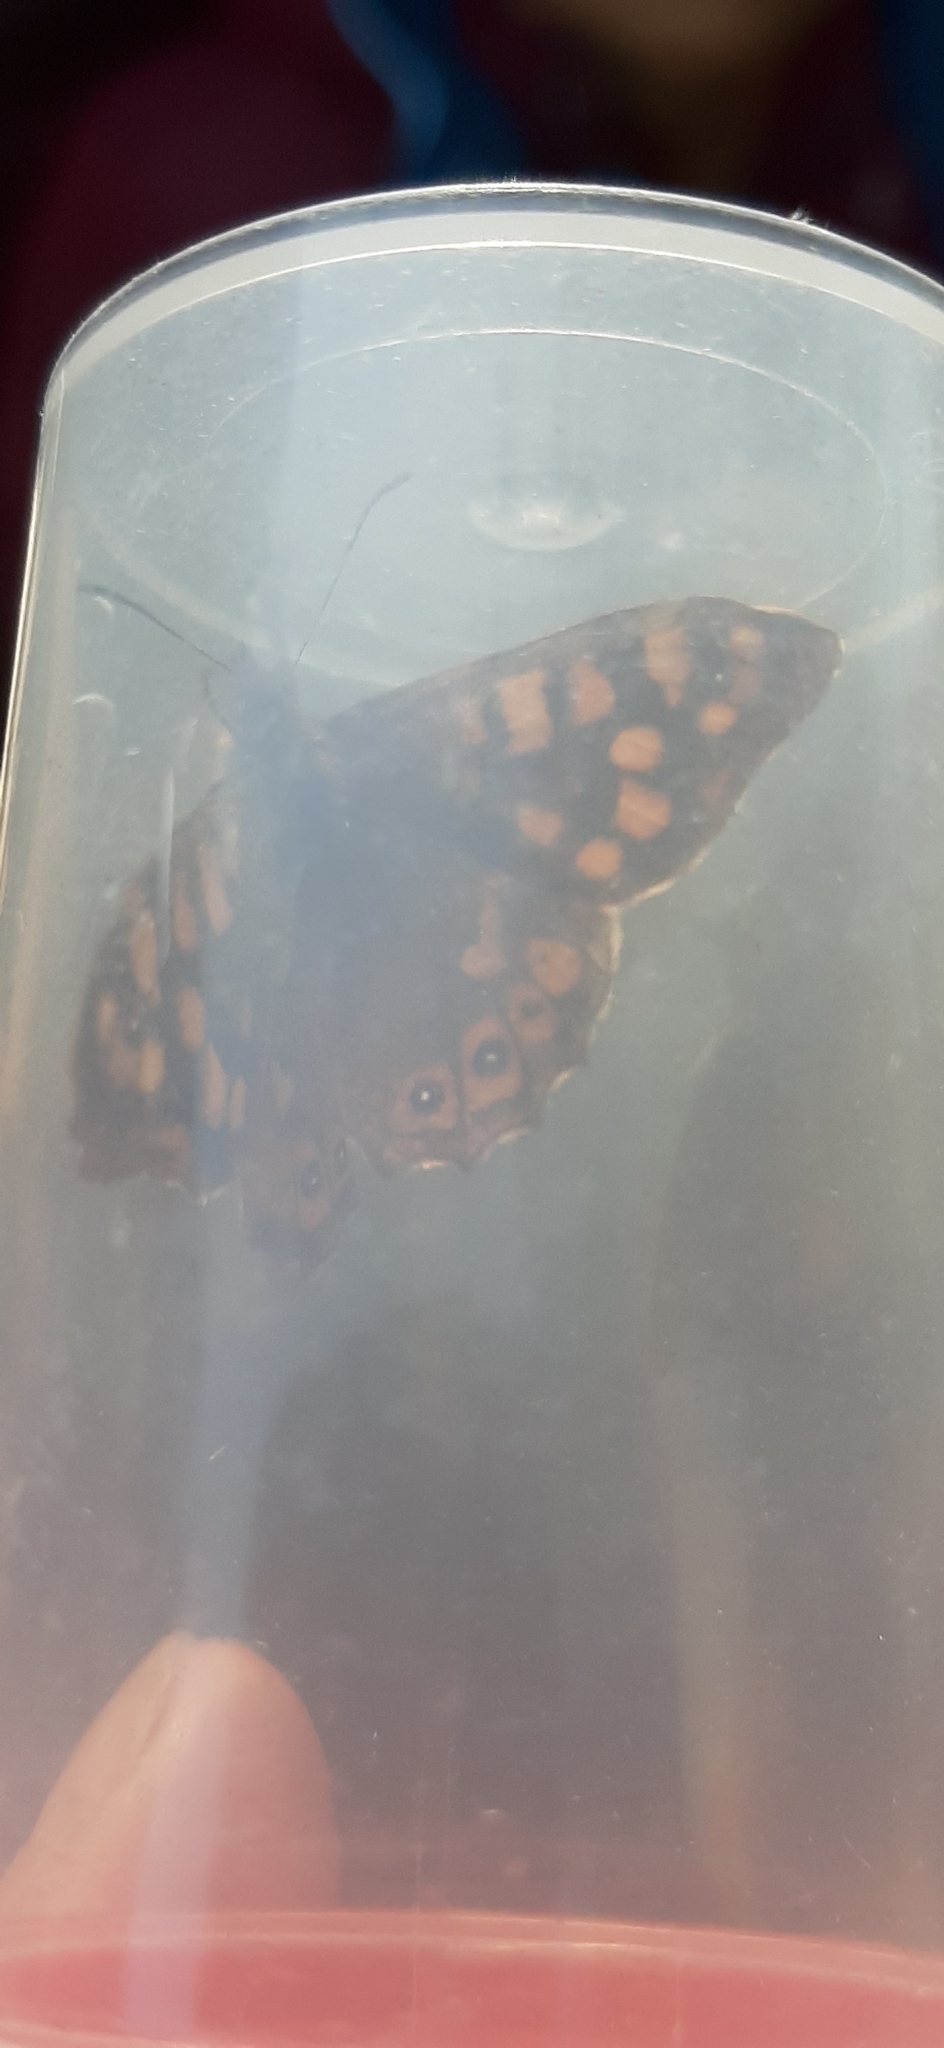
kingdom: Animalia
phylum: Arthropoda
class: Insecta
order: Lepidoptera
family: Nymphalidae
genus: Pararge
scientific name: Pararge aegeria
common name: Speckled wood
